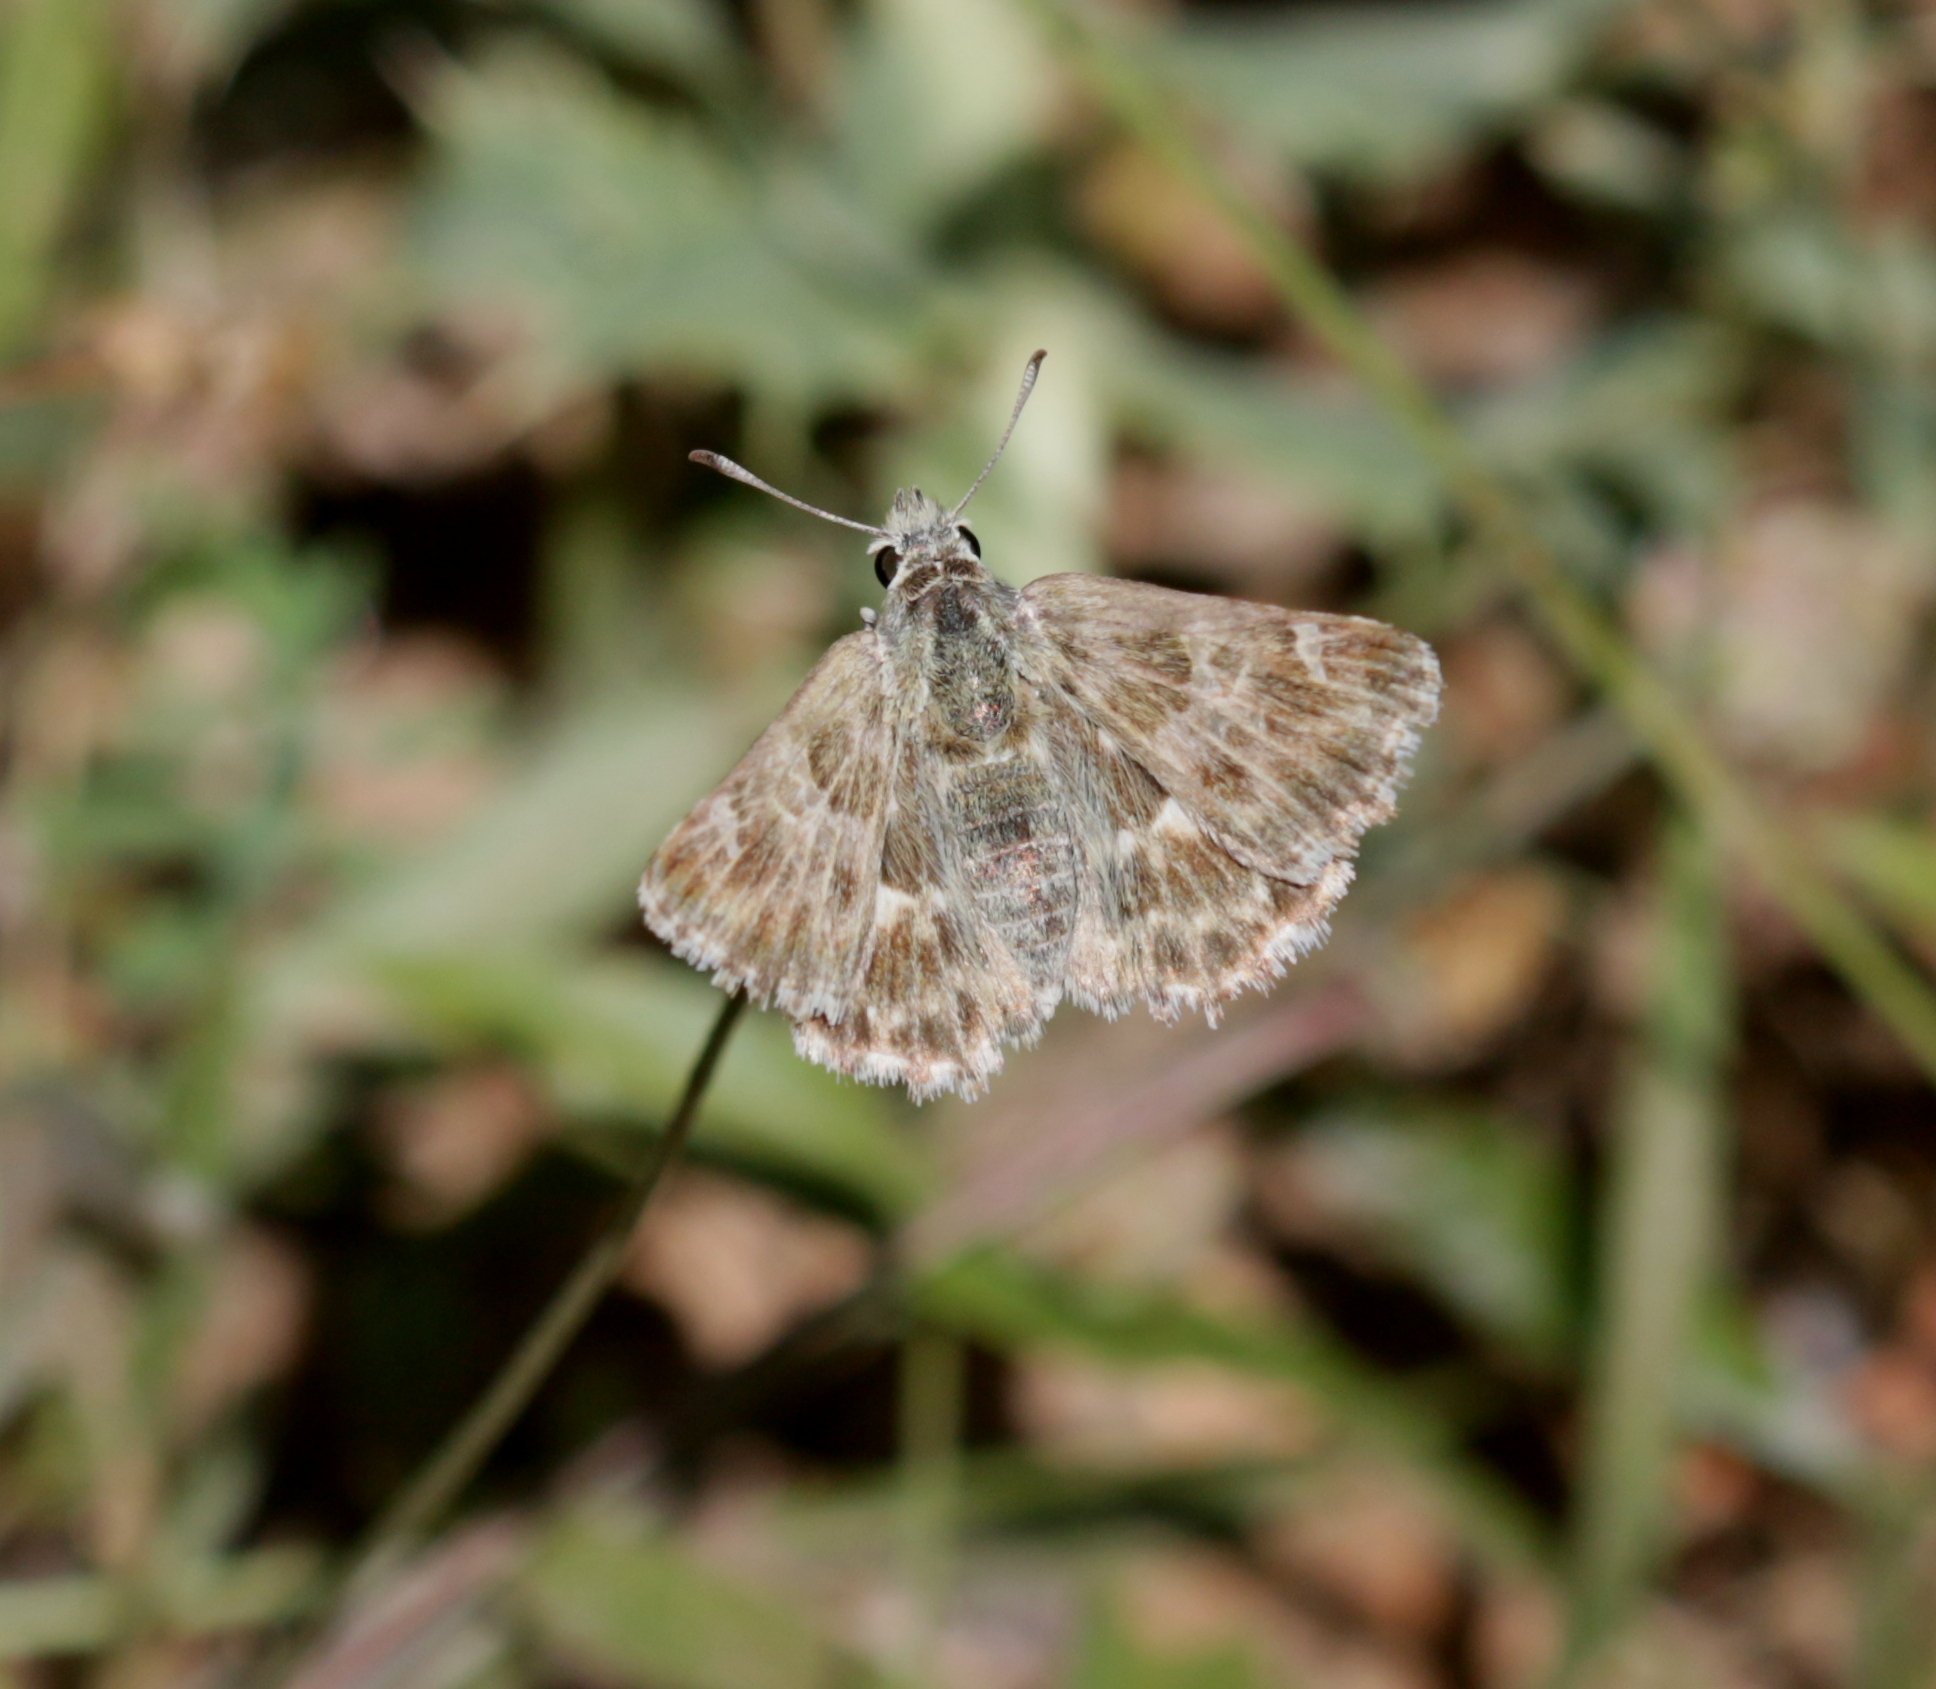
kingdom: Animalia
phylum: Arthropoda
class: Insecta
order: Lepidoptera
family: Hesperiidae
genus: Syrichtus
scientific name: Syrichtus Muschampia baeticus
